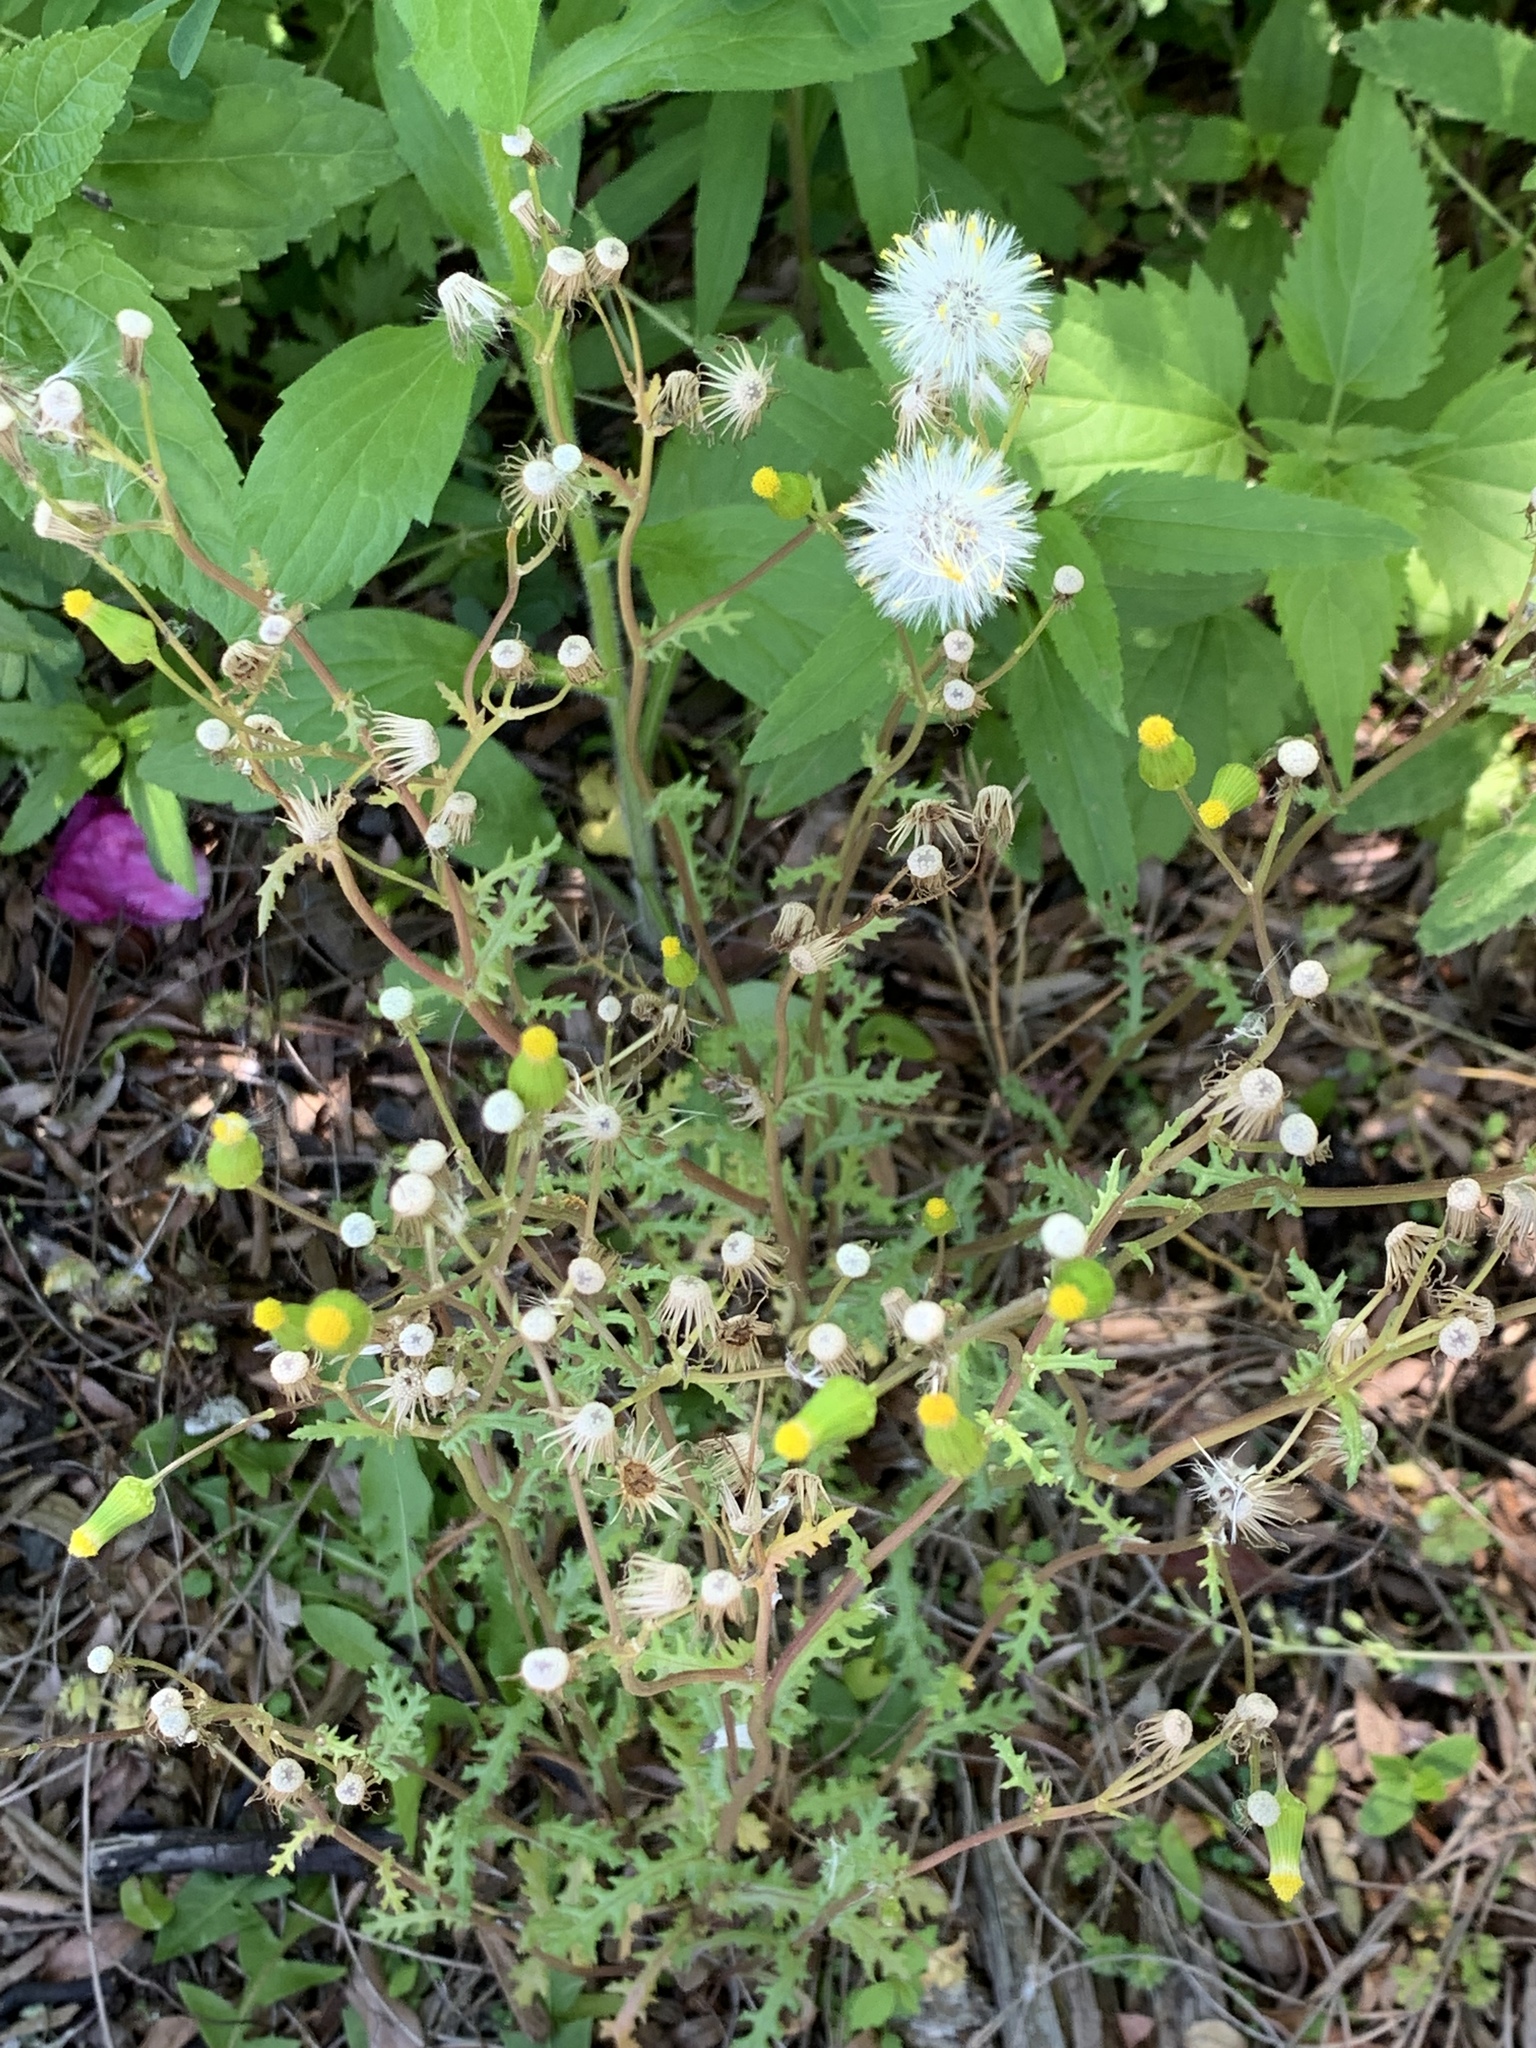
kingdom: Plantae
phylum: Tracheophyta
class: Magnoliopsida
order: Asterales
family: Asteraceae
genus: Senecio
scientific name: Senecio vulgaris
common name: Old-man-in-the-spring
